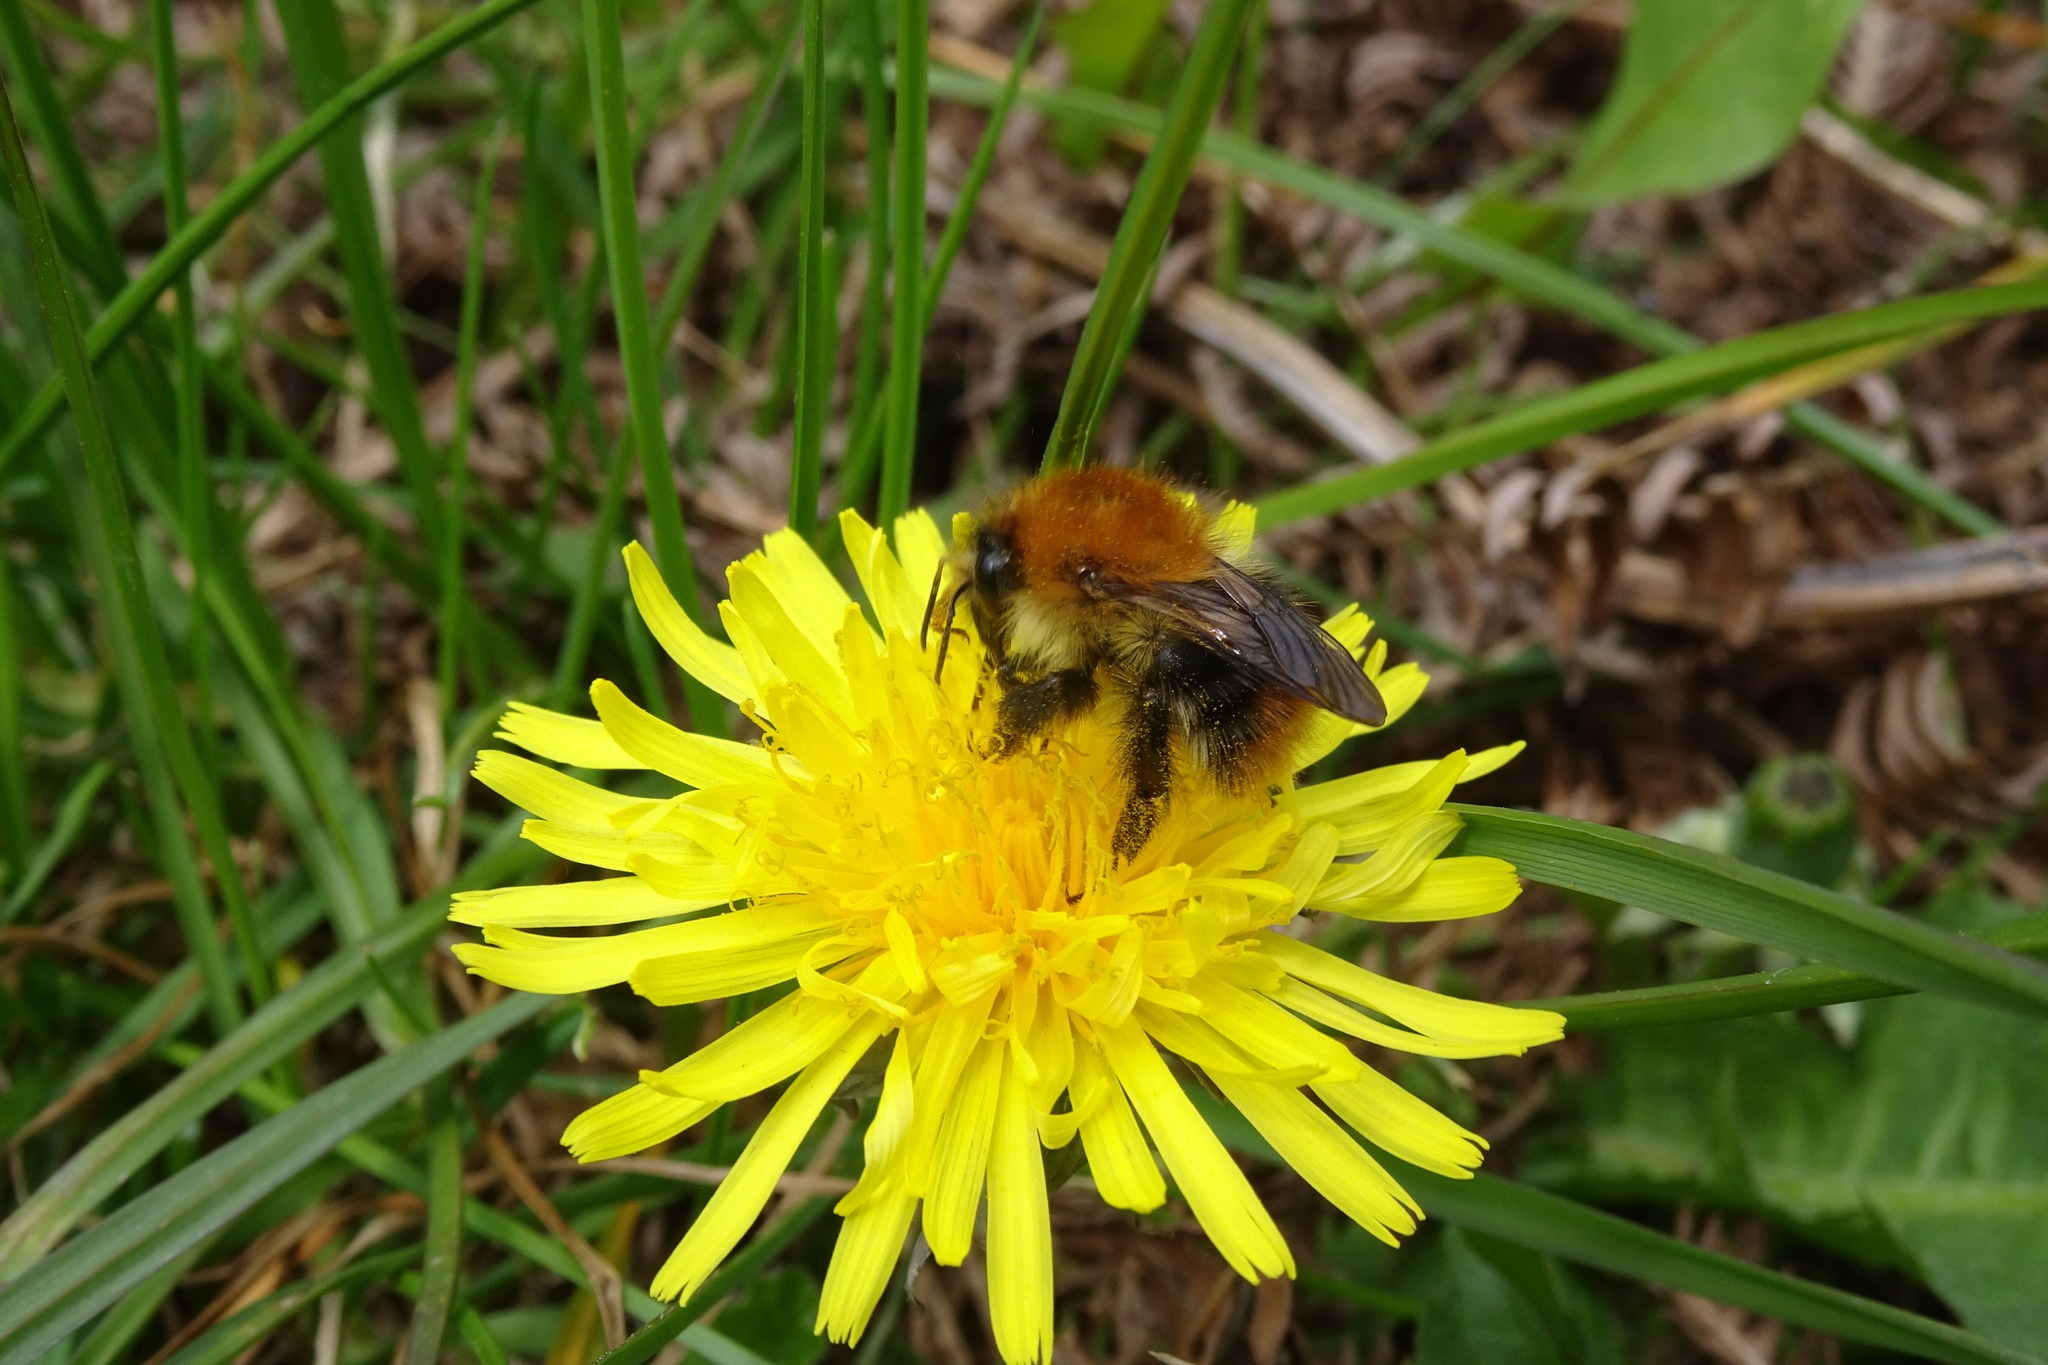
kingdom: Animalia
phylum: Arthropoda
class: Insecta
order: Hymenoptera
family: Apidae
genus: Bombus
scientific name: Bombus pascuorum
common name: Common carder bee
